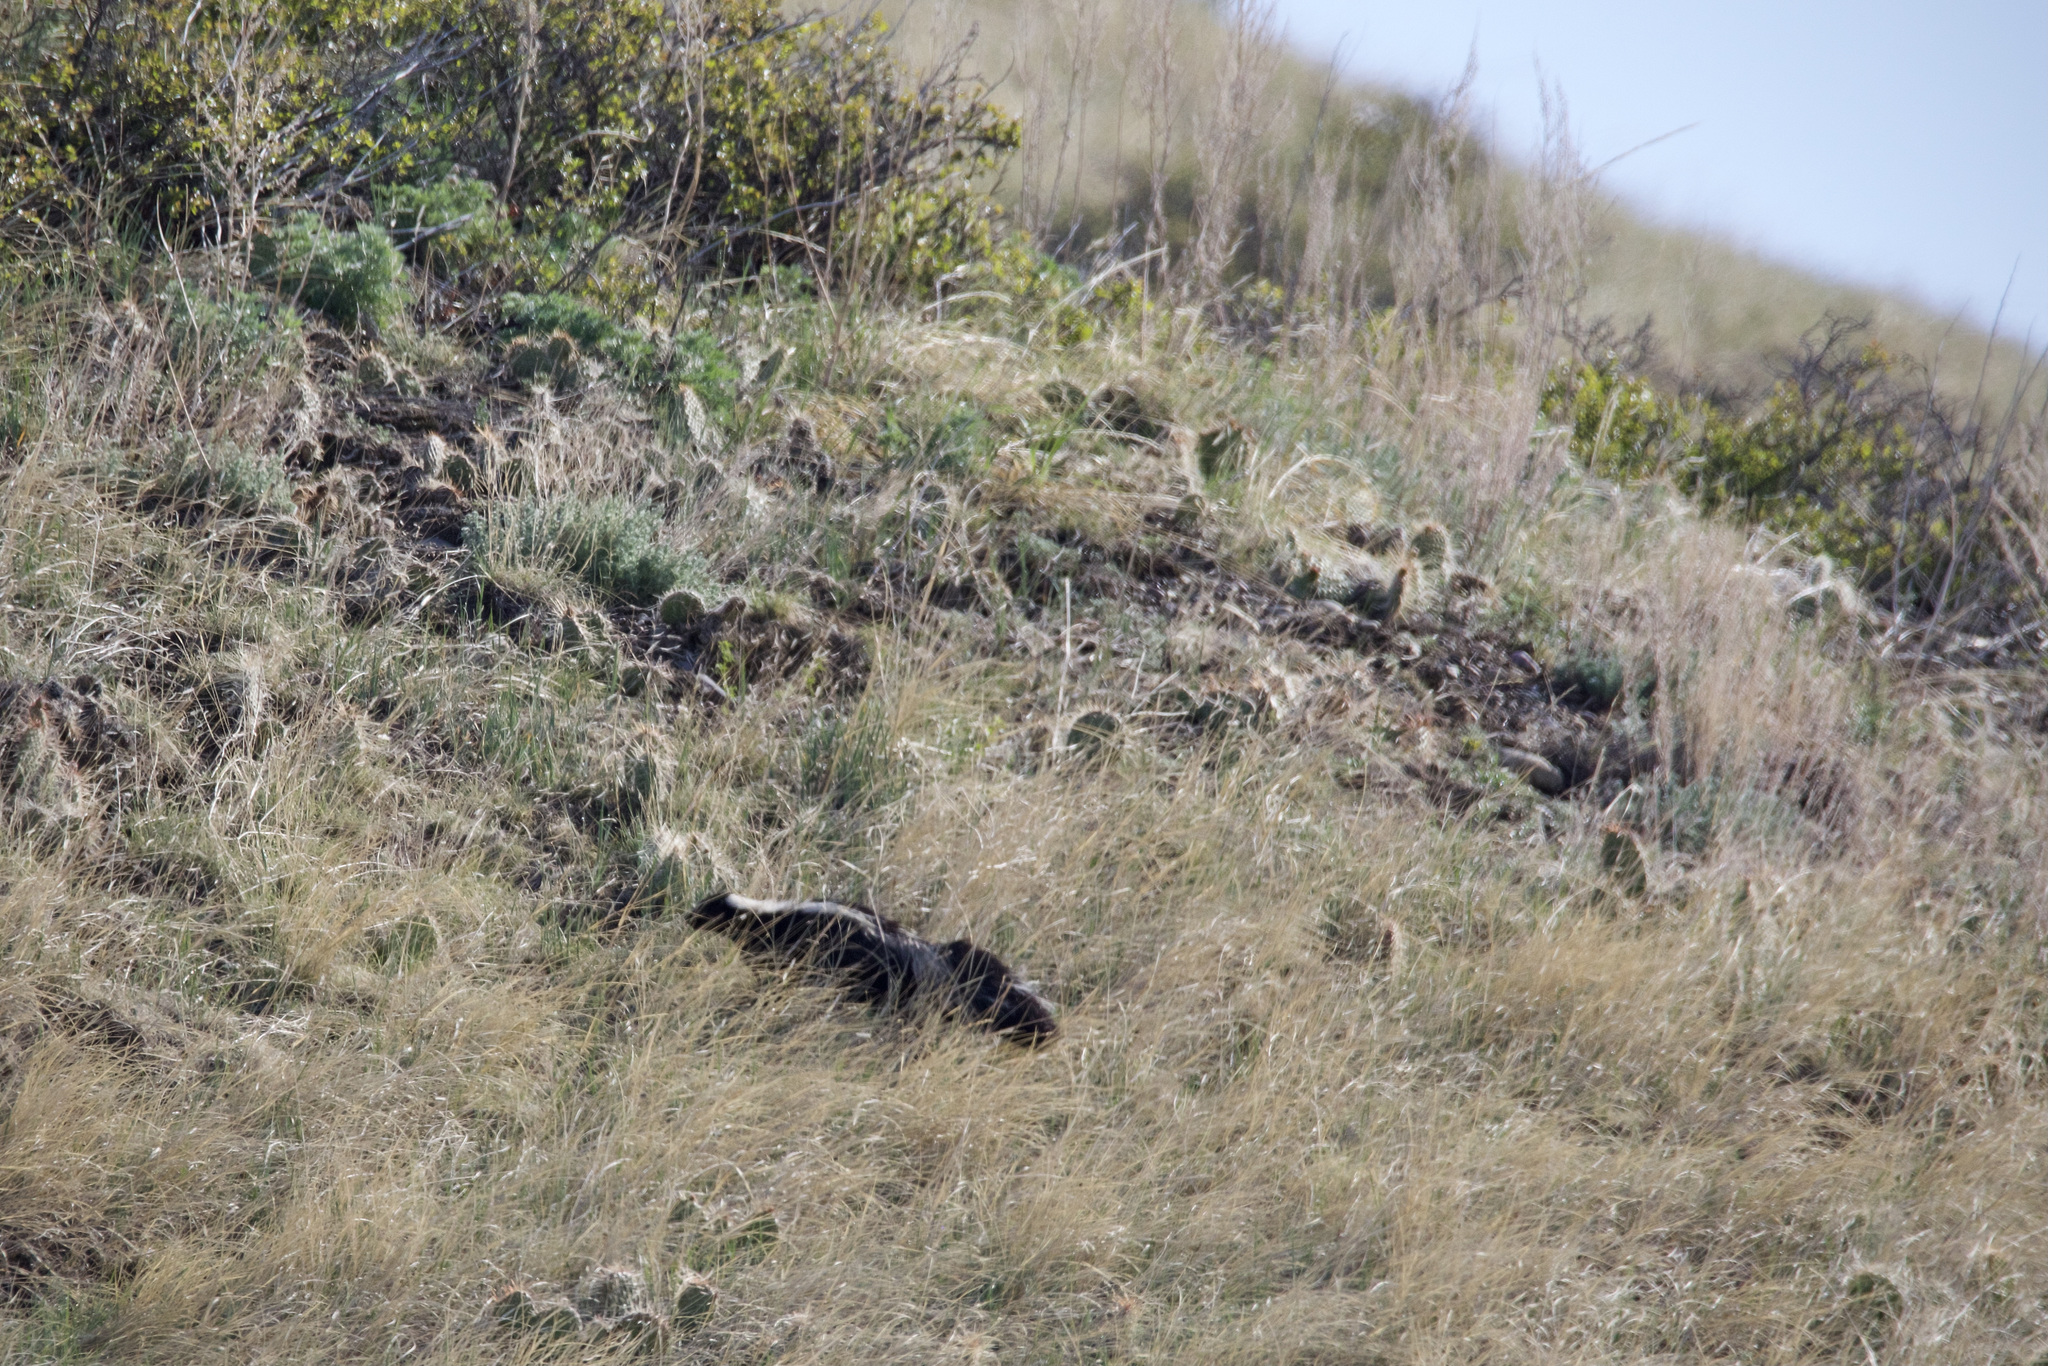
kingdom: Animalia
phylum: Chordata
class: Mammalia
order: Carnivora
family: Mephitidae
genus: Mephitis
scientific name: Mephitis mephitis
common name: Striped skunk
